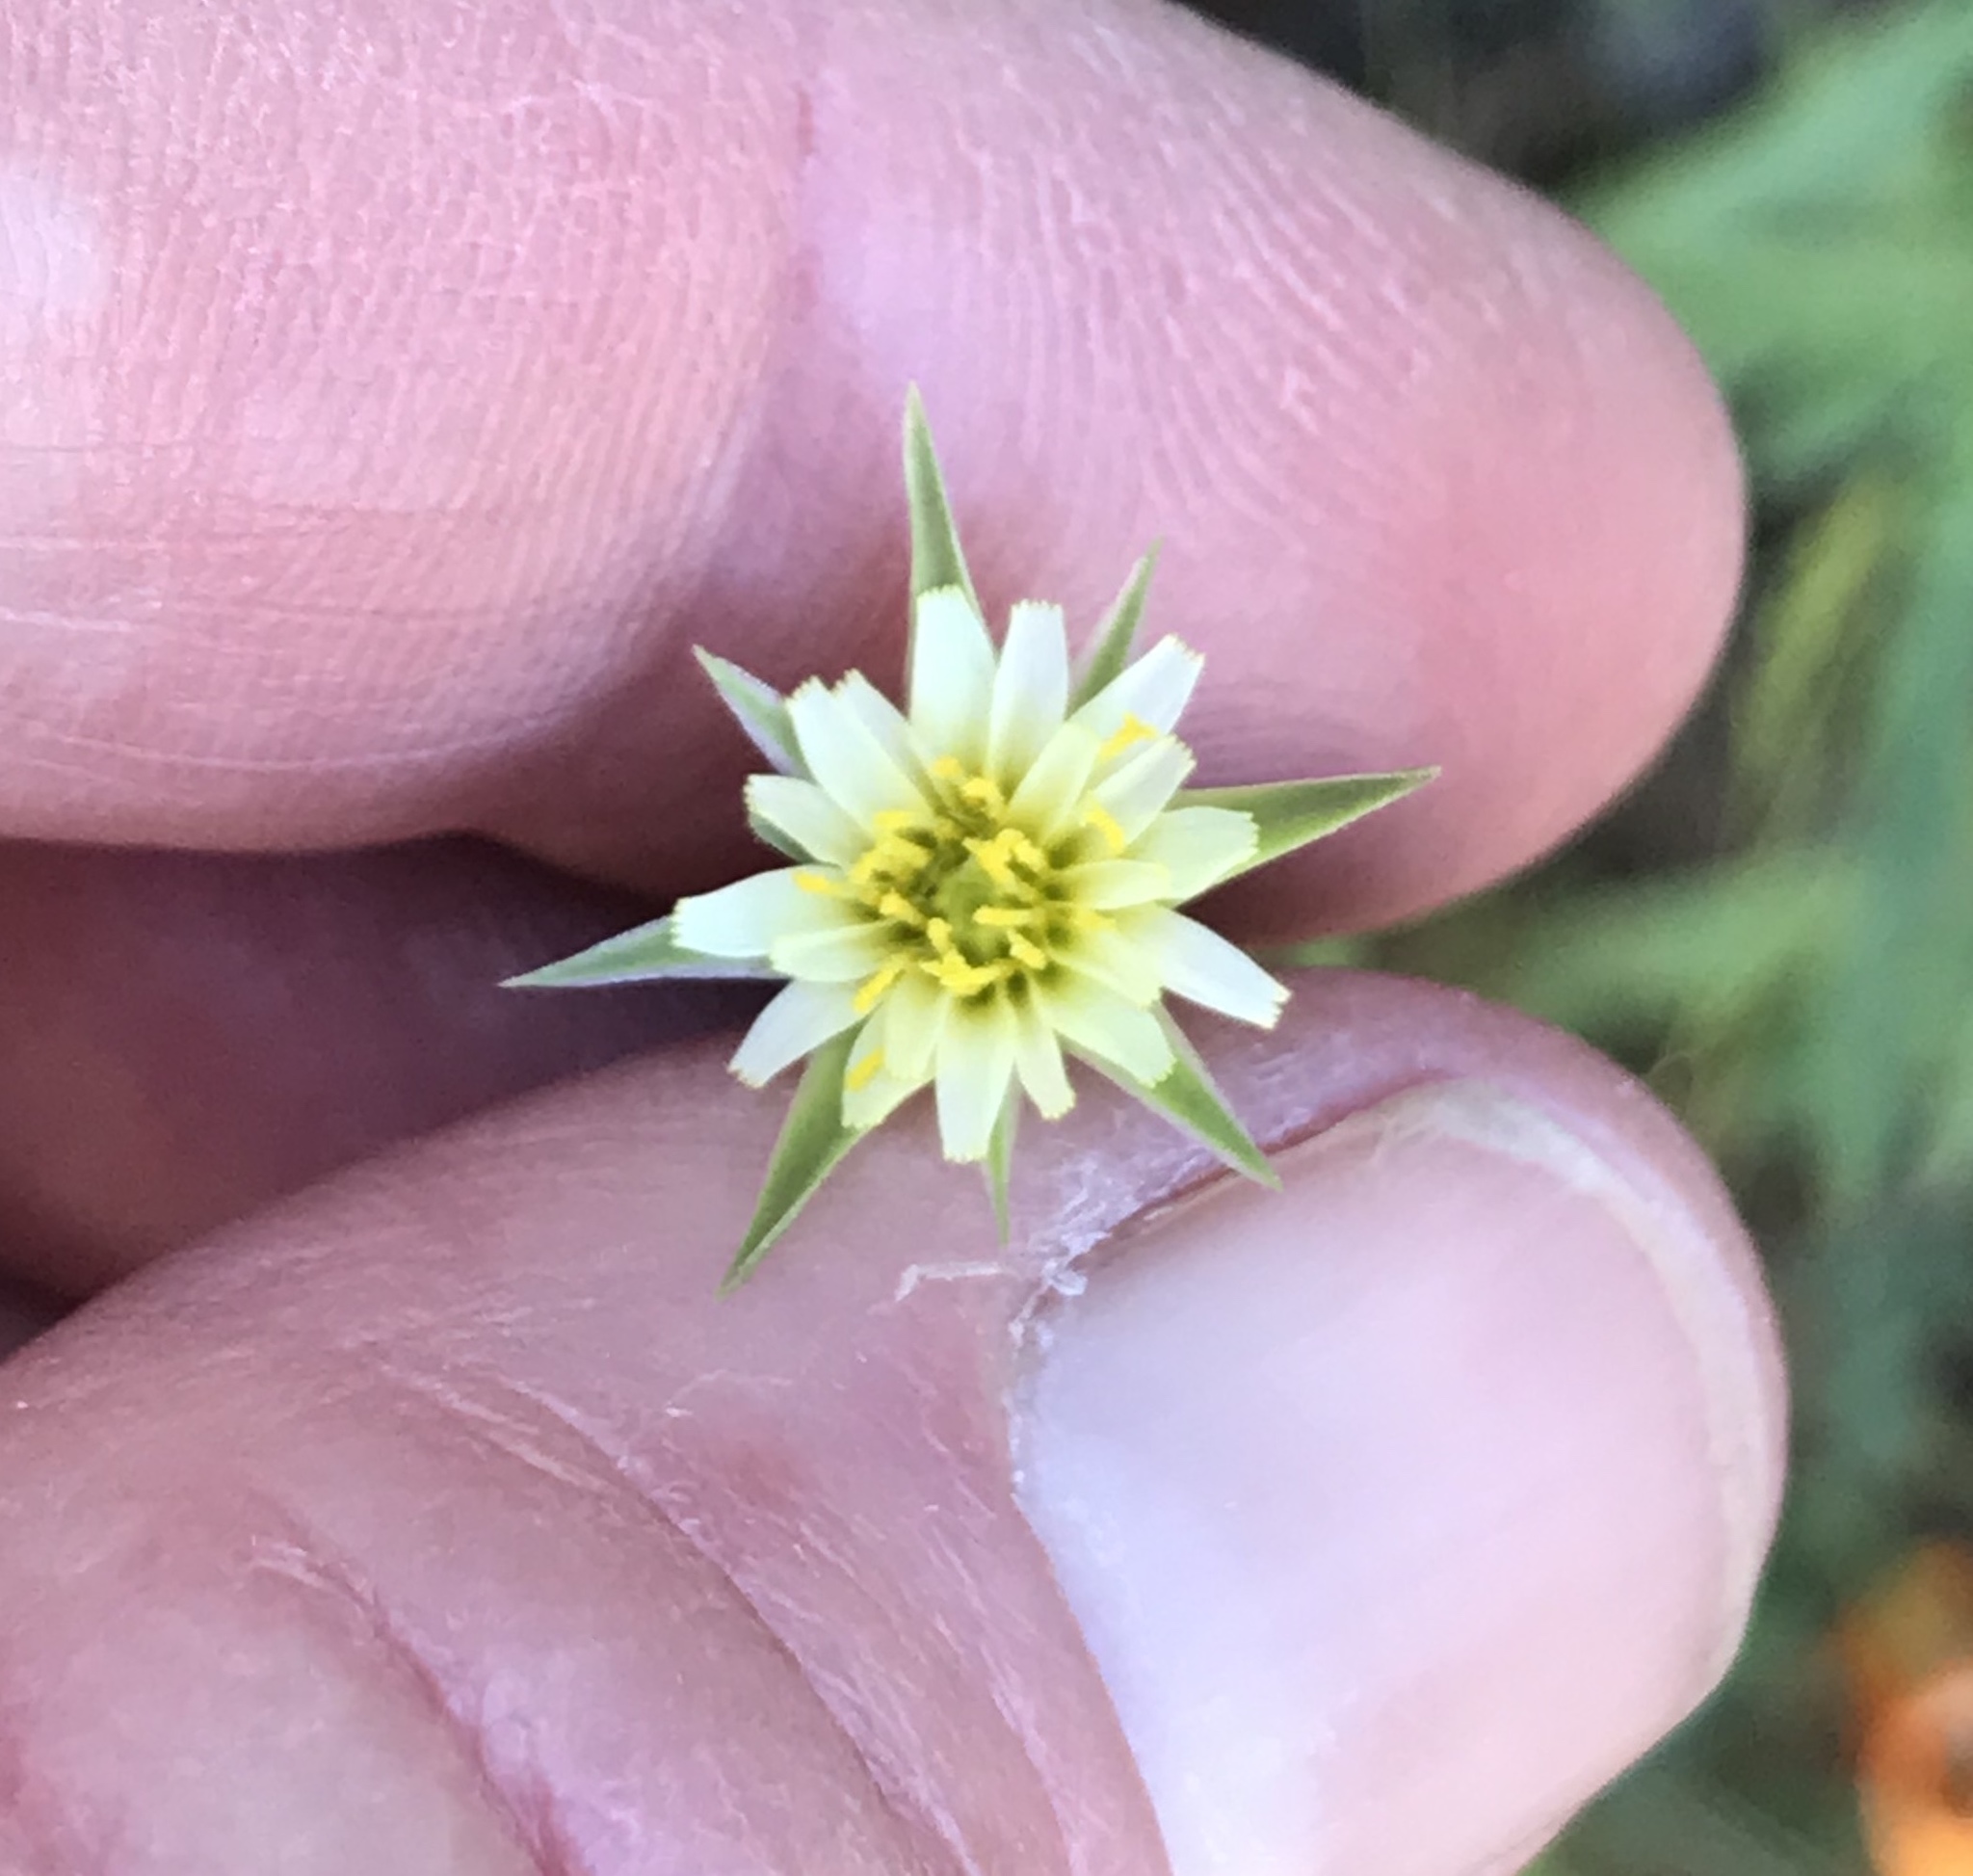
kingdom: Plantae
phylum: Tracheophyta
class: Magnoliopsida
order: Asterales
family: Asteraceae
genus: Microseris
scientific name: Microseris lindleyi
